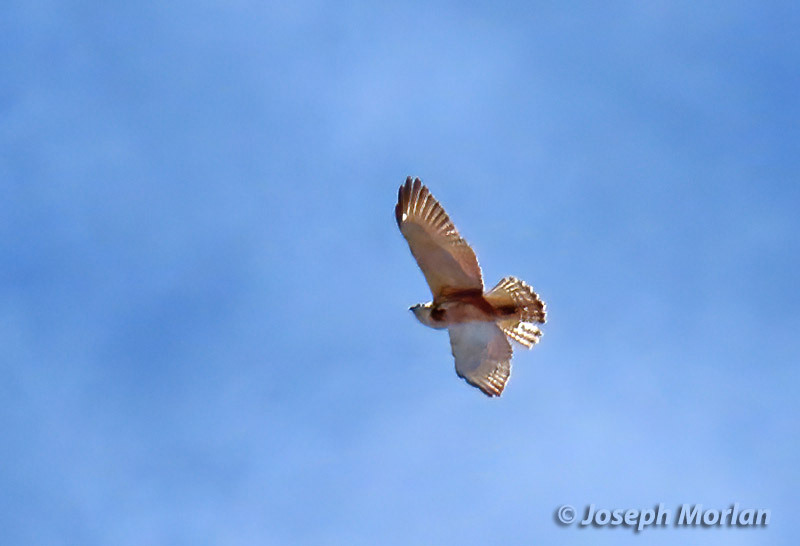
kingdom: Animalia
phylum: Chordata
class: Aves
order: Accipitriformes
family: Accipitridae
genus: Buteo
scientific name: Buteo platypterus
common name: Broad-winged hawk
